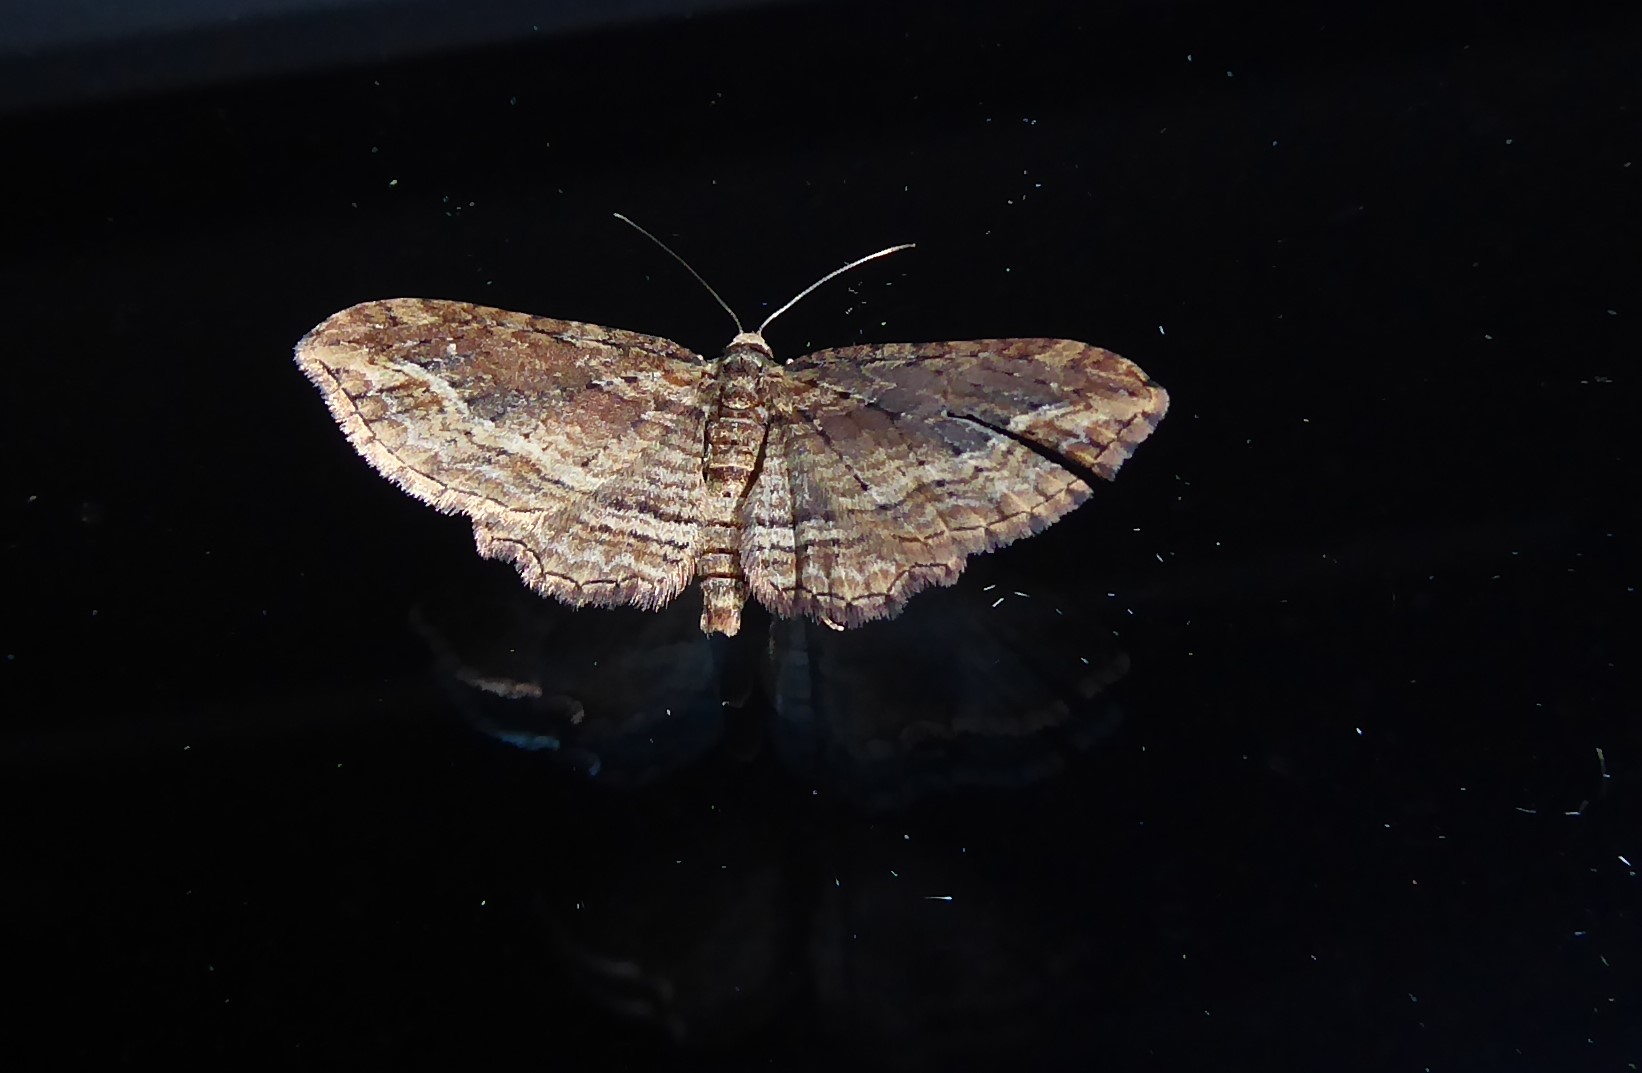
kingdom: Animalia
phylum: Arthropoda
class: Insecta
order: Lepidoptera
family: Geometridae
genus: Chloroclystis
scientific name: Chloroclystis filata
